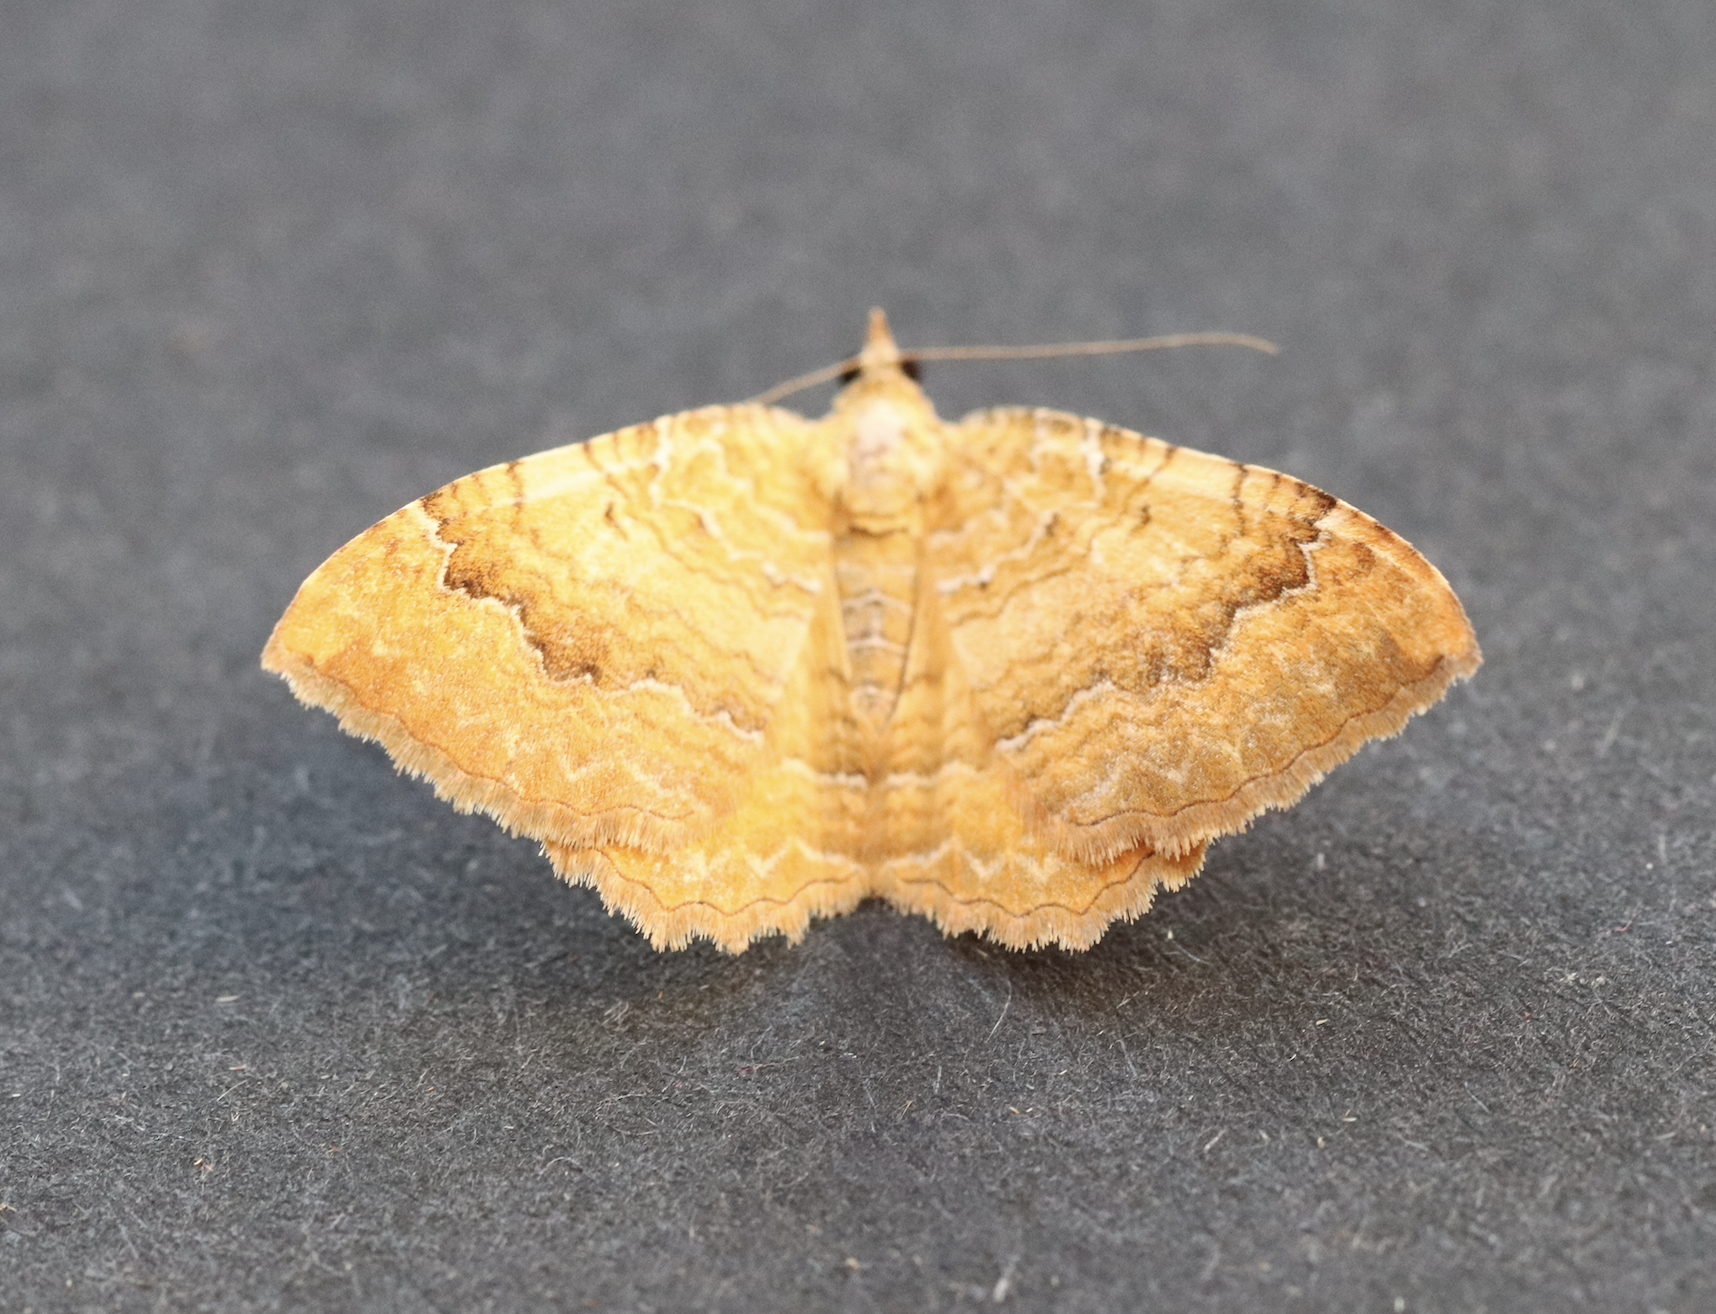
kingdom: Animalia
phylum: Arthropoda
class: Insecta
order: Lepidoptera
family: Geometridae
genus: Camptogramma
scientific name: Camptogramma bilineata
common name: Yellow shell
